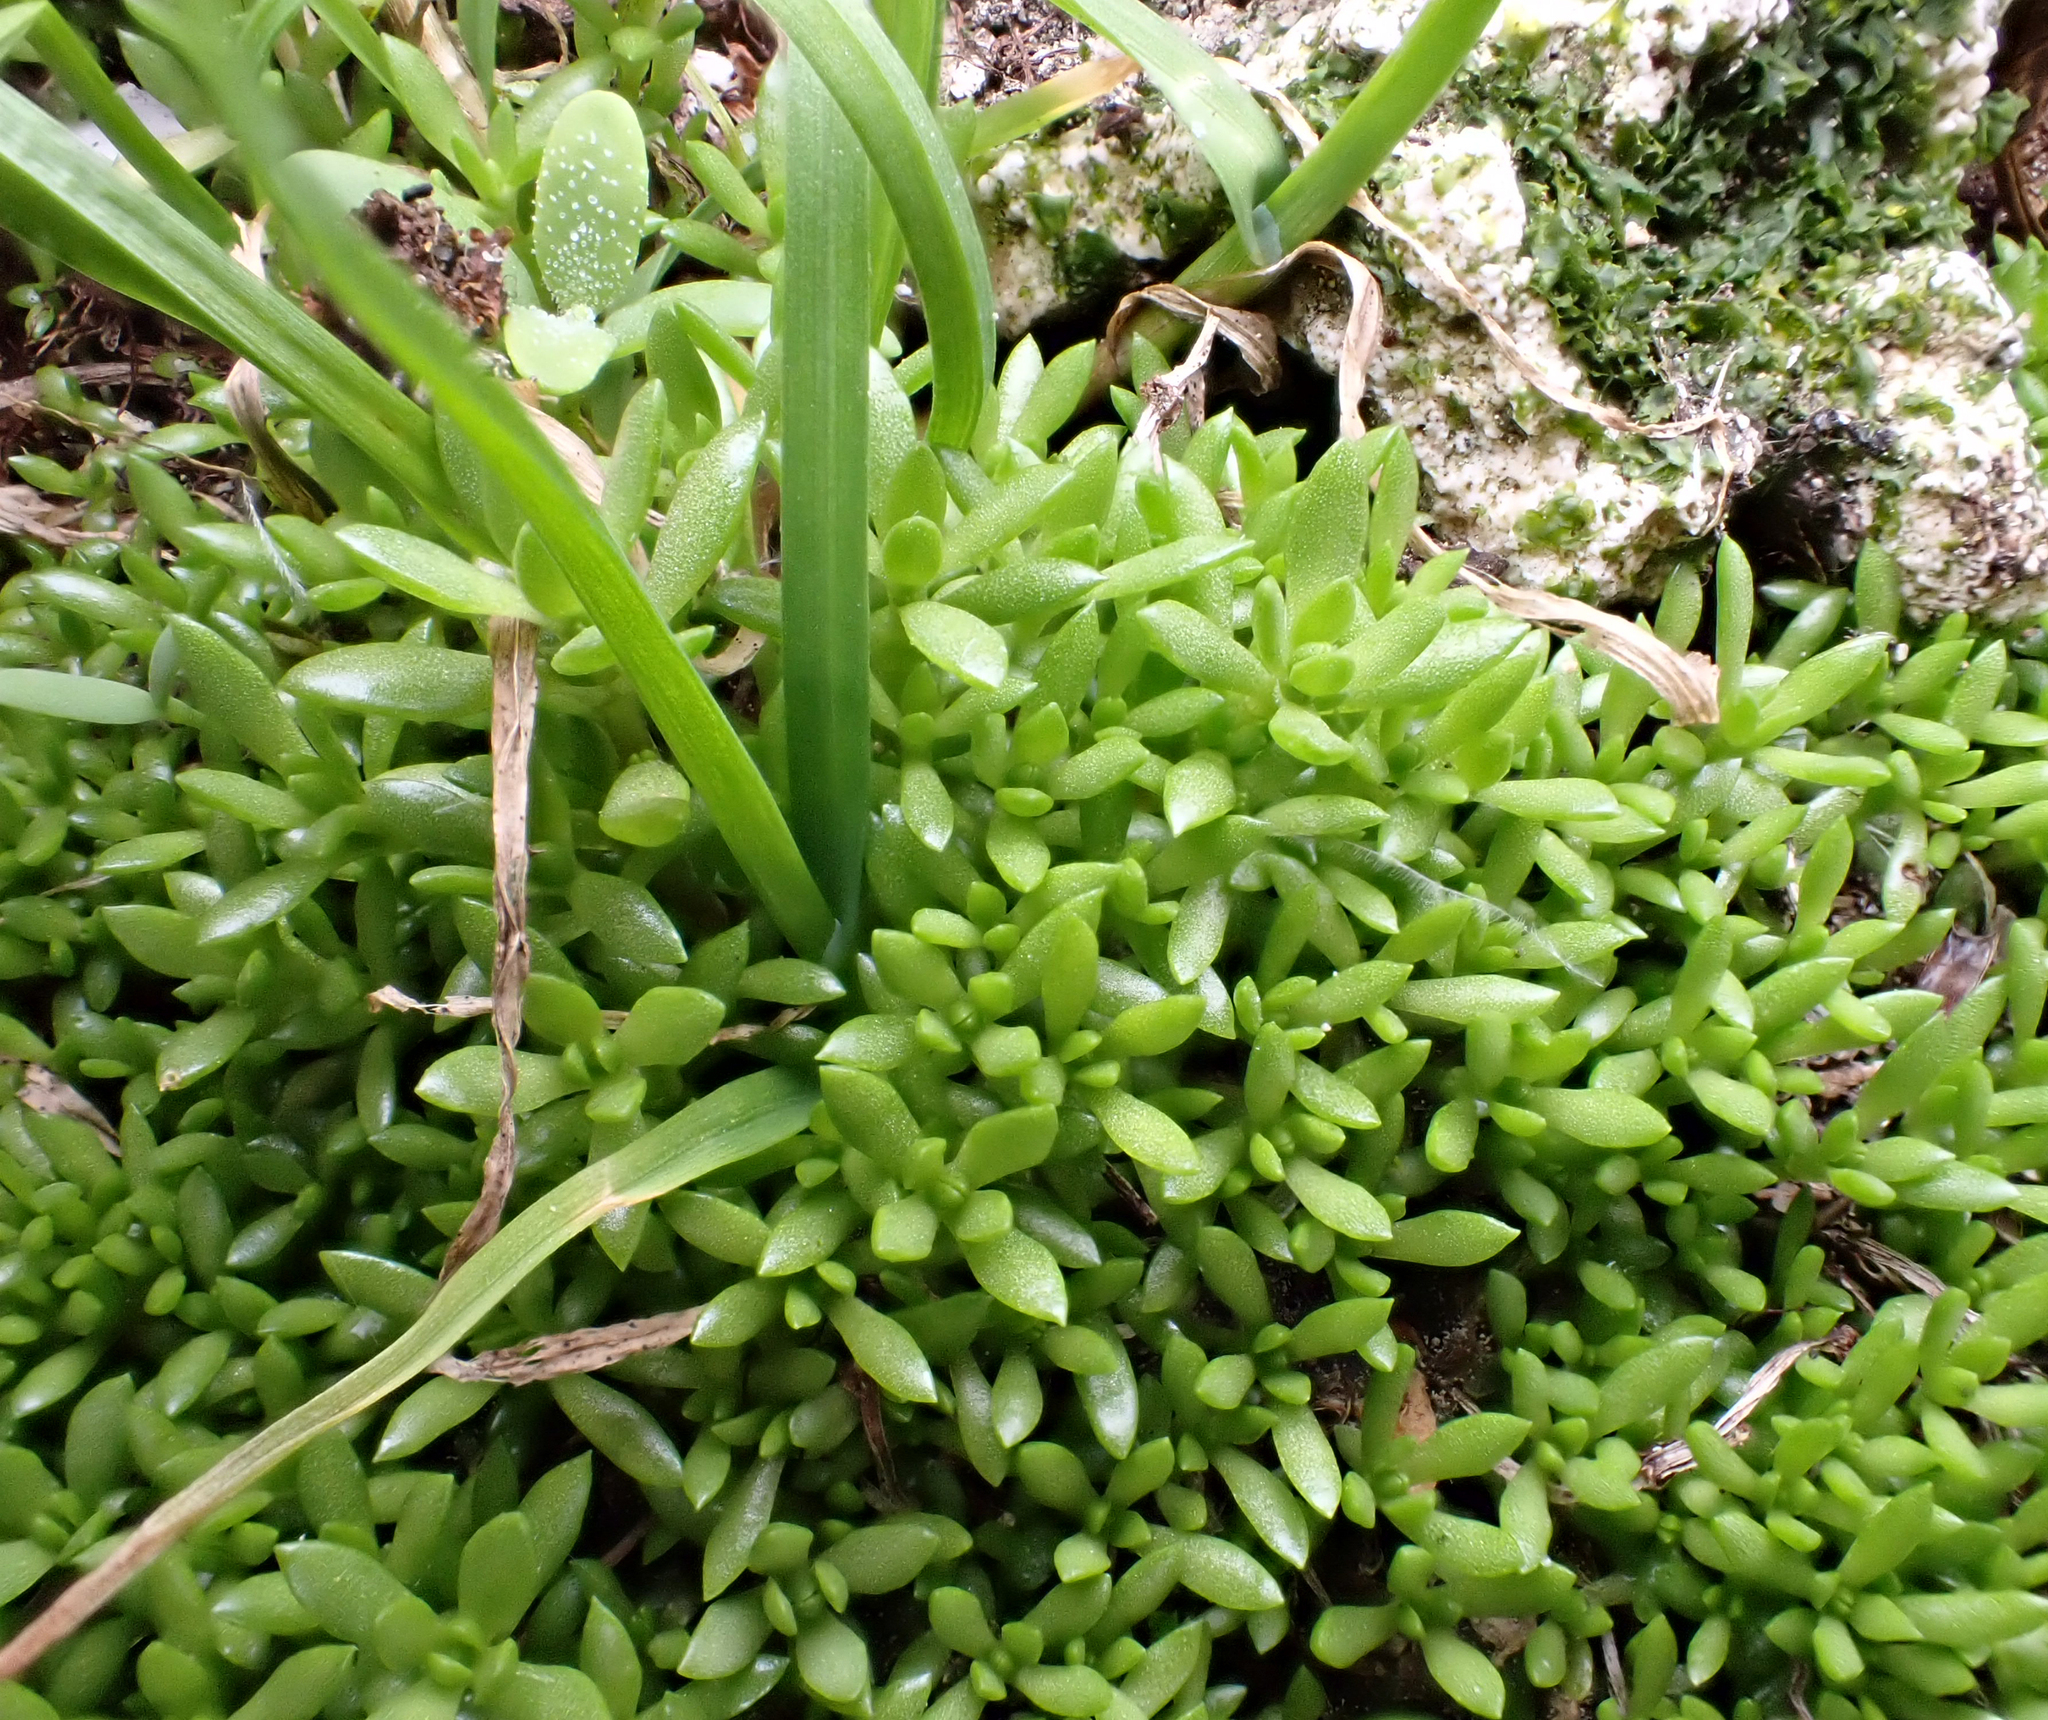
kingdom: Plantae
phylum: Tracheophyta
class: Magnoliopsida
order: Saxifragales
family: Crassulaceae
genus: Crassula
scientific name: Crassula moschata
